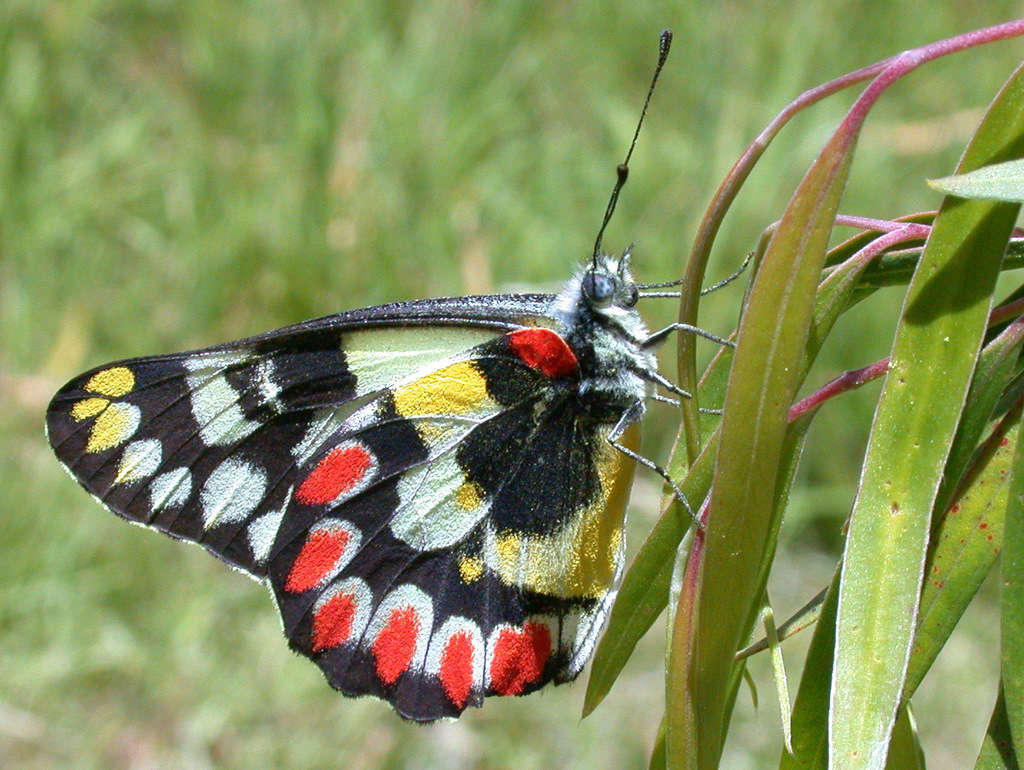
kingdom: Animalia
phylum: Arthropoda
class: Insecta
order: Lepidoptera
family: Pieridae
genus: Delias
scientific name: Delias aganippe
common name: Red-spotted jezebel
